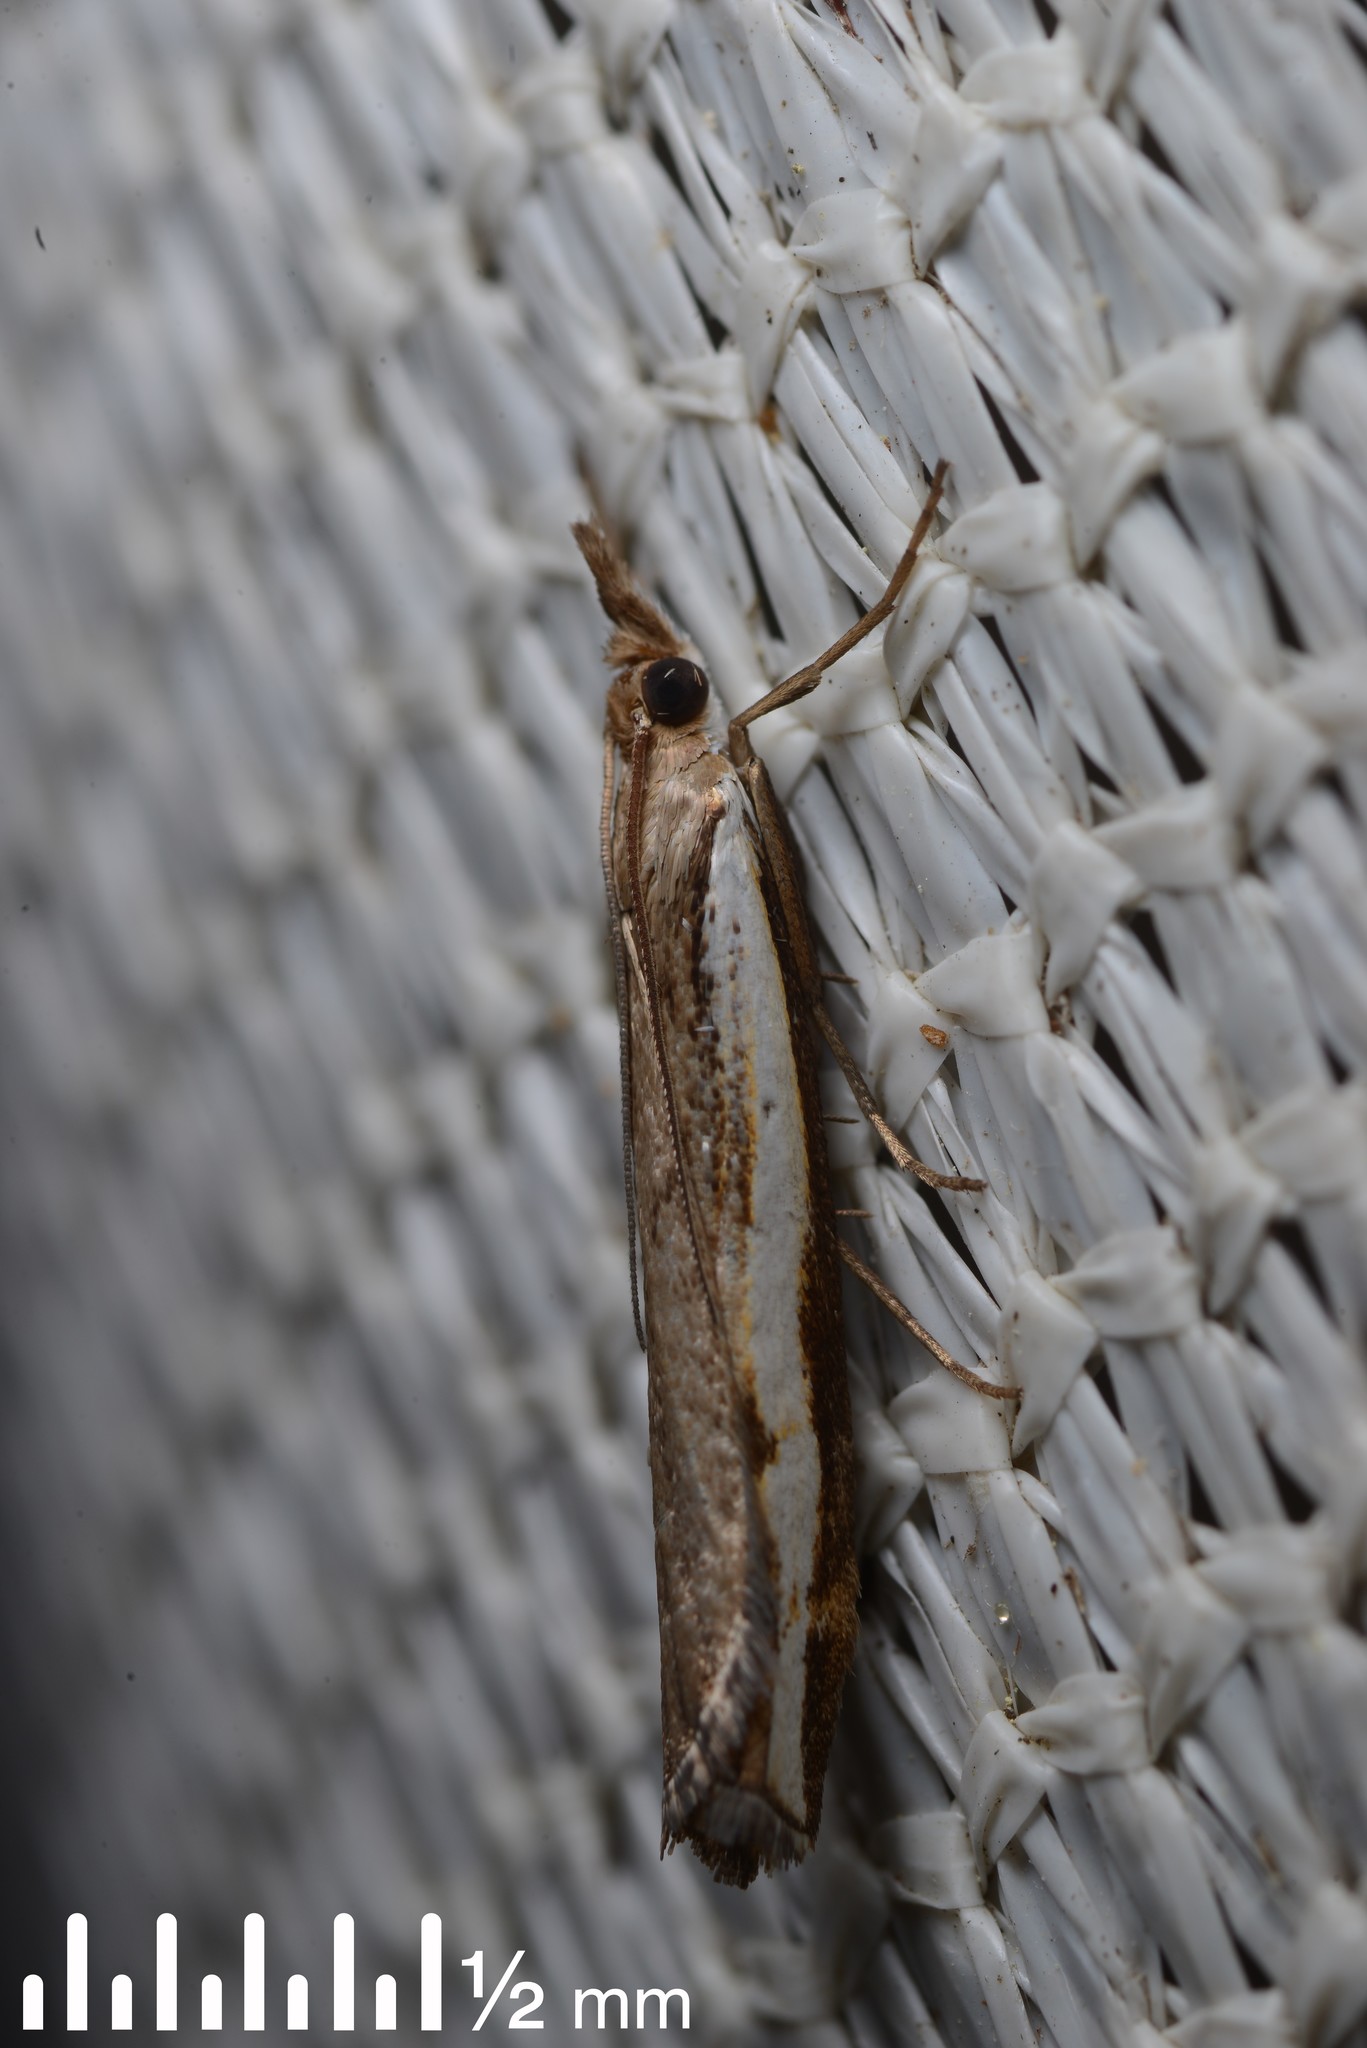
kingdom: Animalia
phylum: Arthropoda
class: Insecta
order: Lepidoptera
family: Crambidae
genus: Orocrambus
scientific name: Orocrambus flexuosellus
